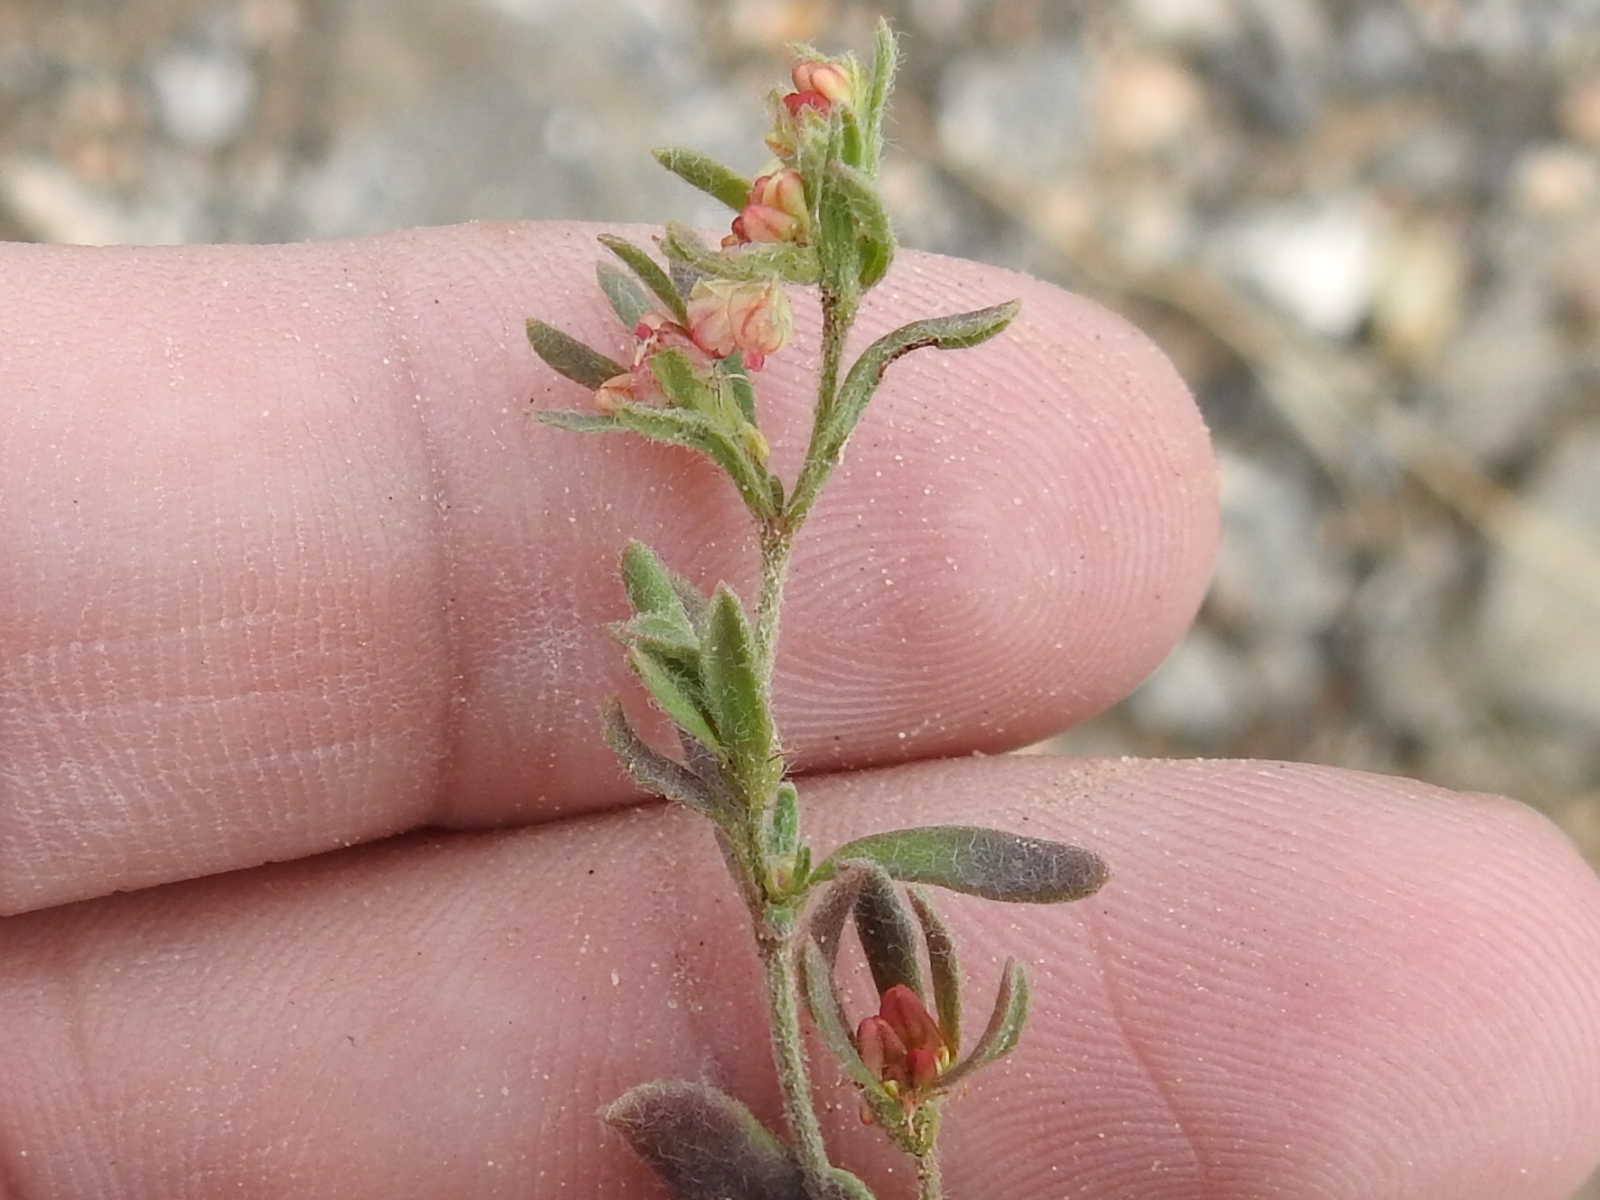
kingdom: Plantae
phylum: Tracheophyta
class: Magnoliopsida
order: Caryophyllales
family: Polygonaceae
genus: Eriogonum
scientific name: Eriogonum abertianum
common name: Abert's wild buckwheat
